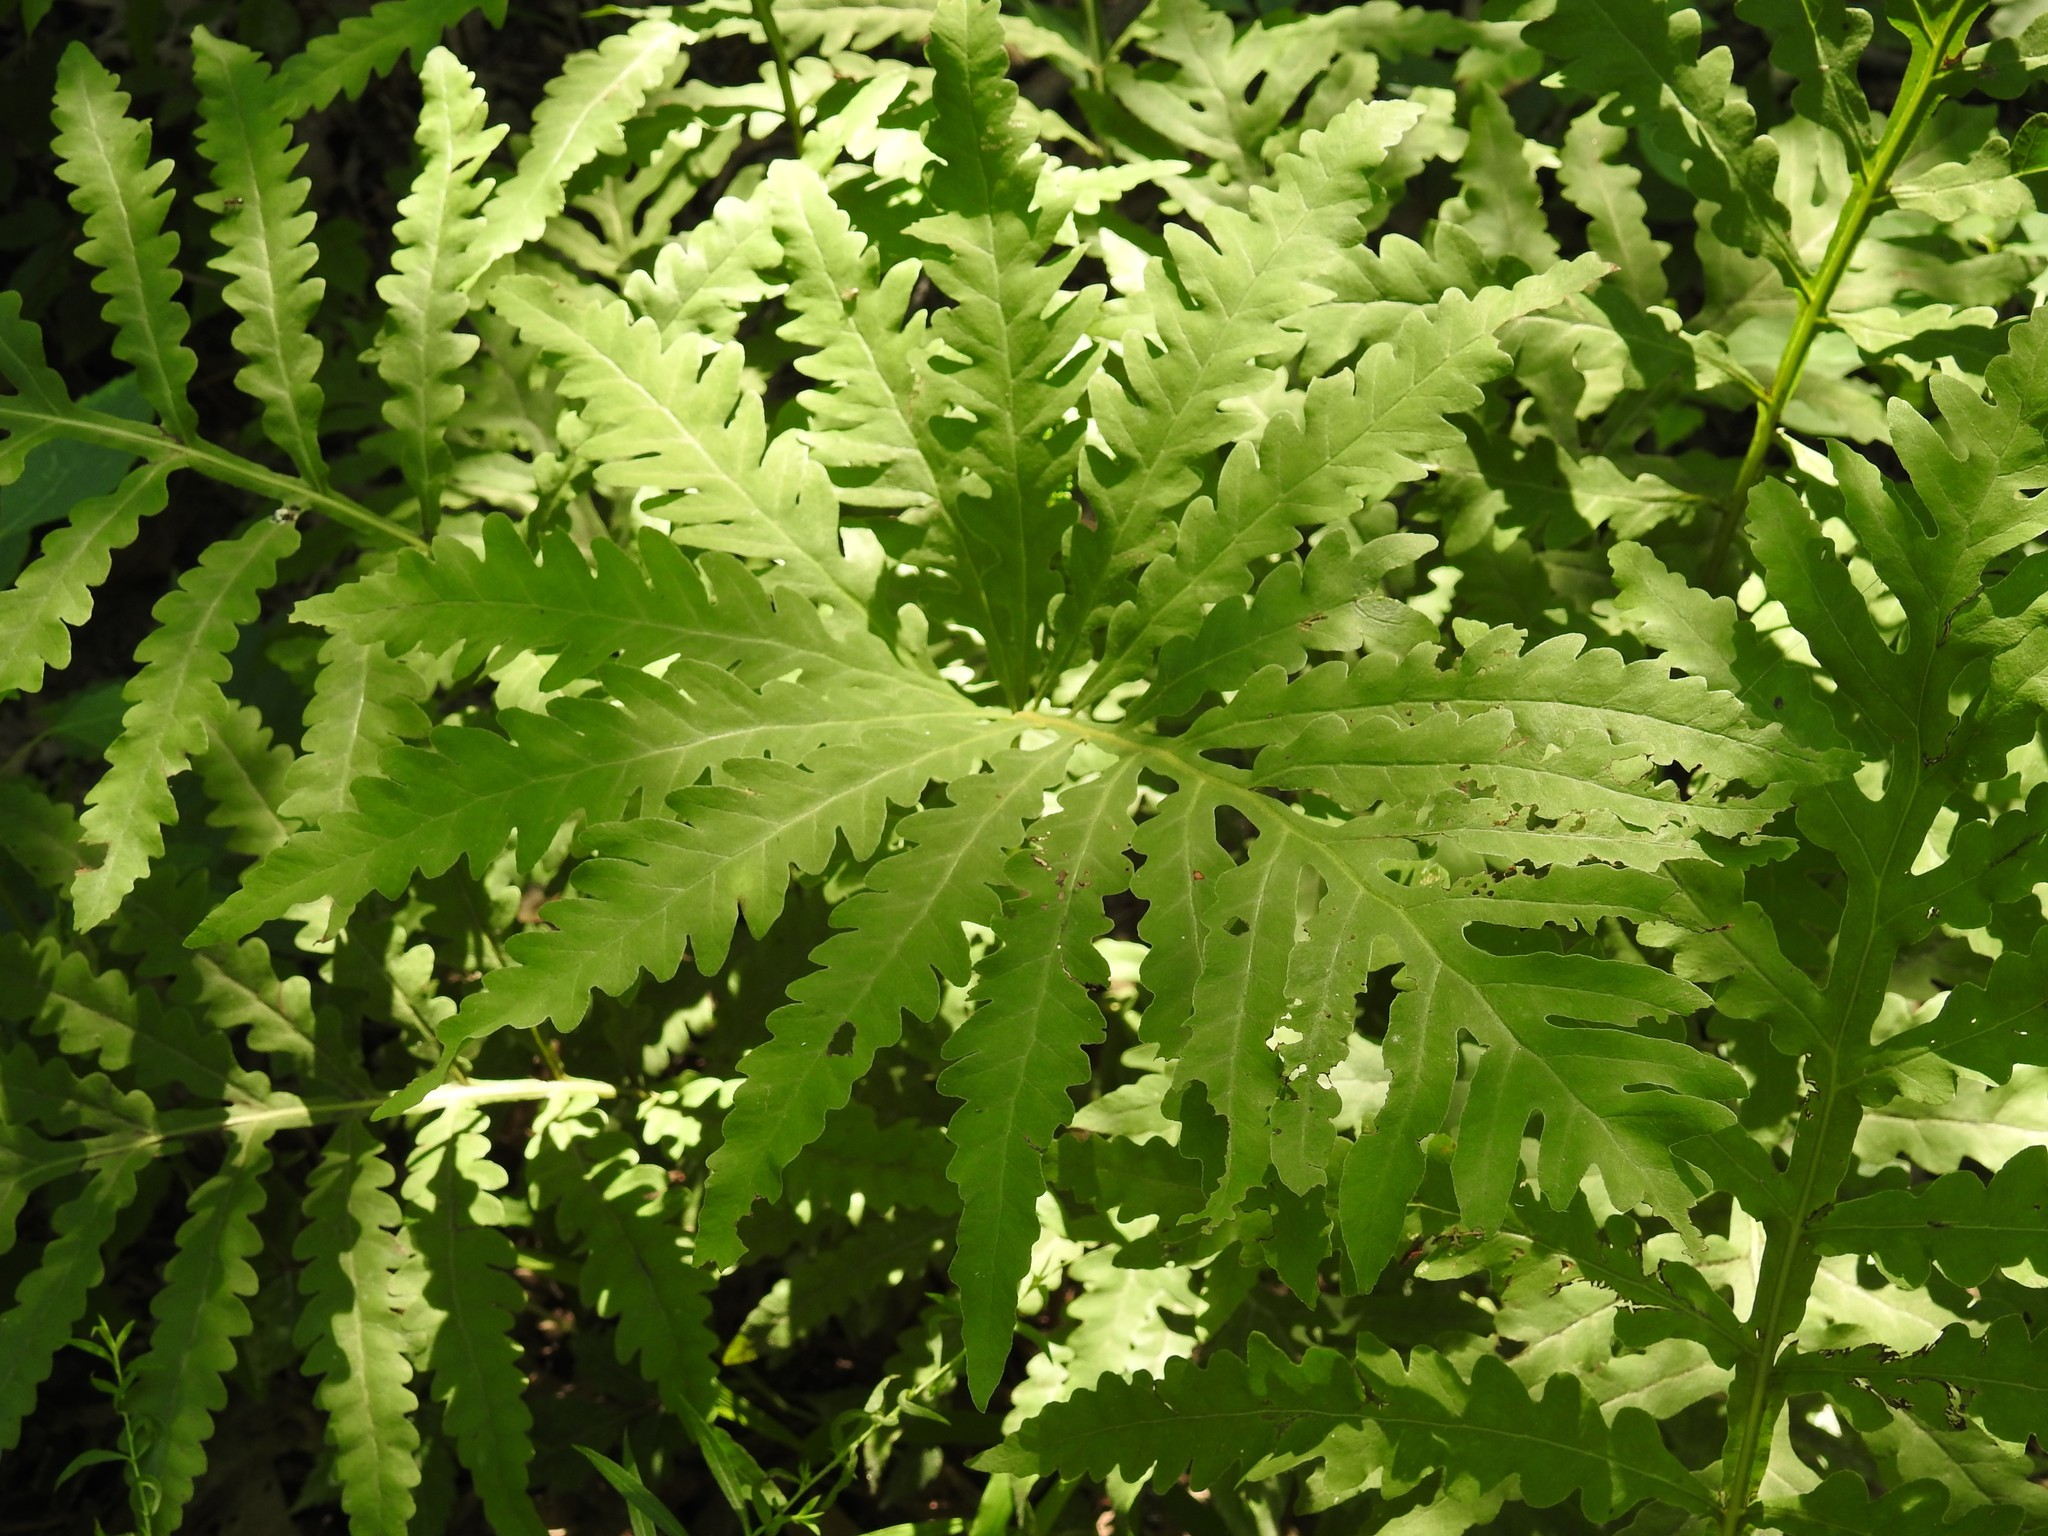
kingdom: Plantae
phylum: Tracheophyta
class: Polypodiopsida
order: Polypodiales
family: Onocleaceae
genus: Onoclea
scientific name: Onoclea sensibilis
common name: Sensitive fern
